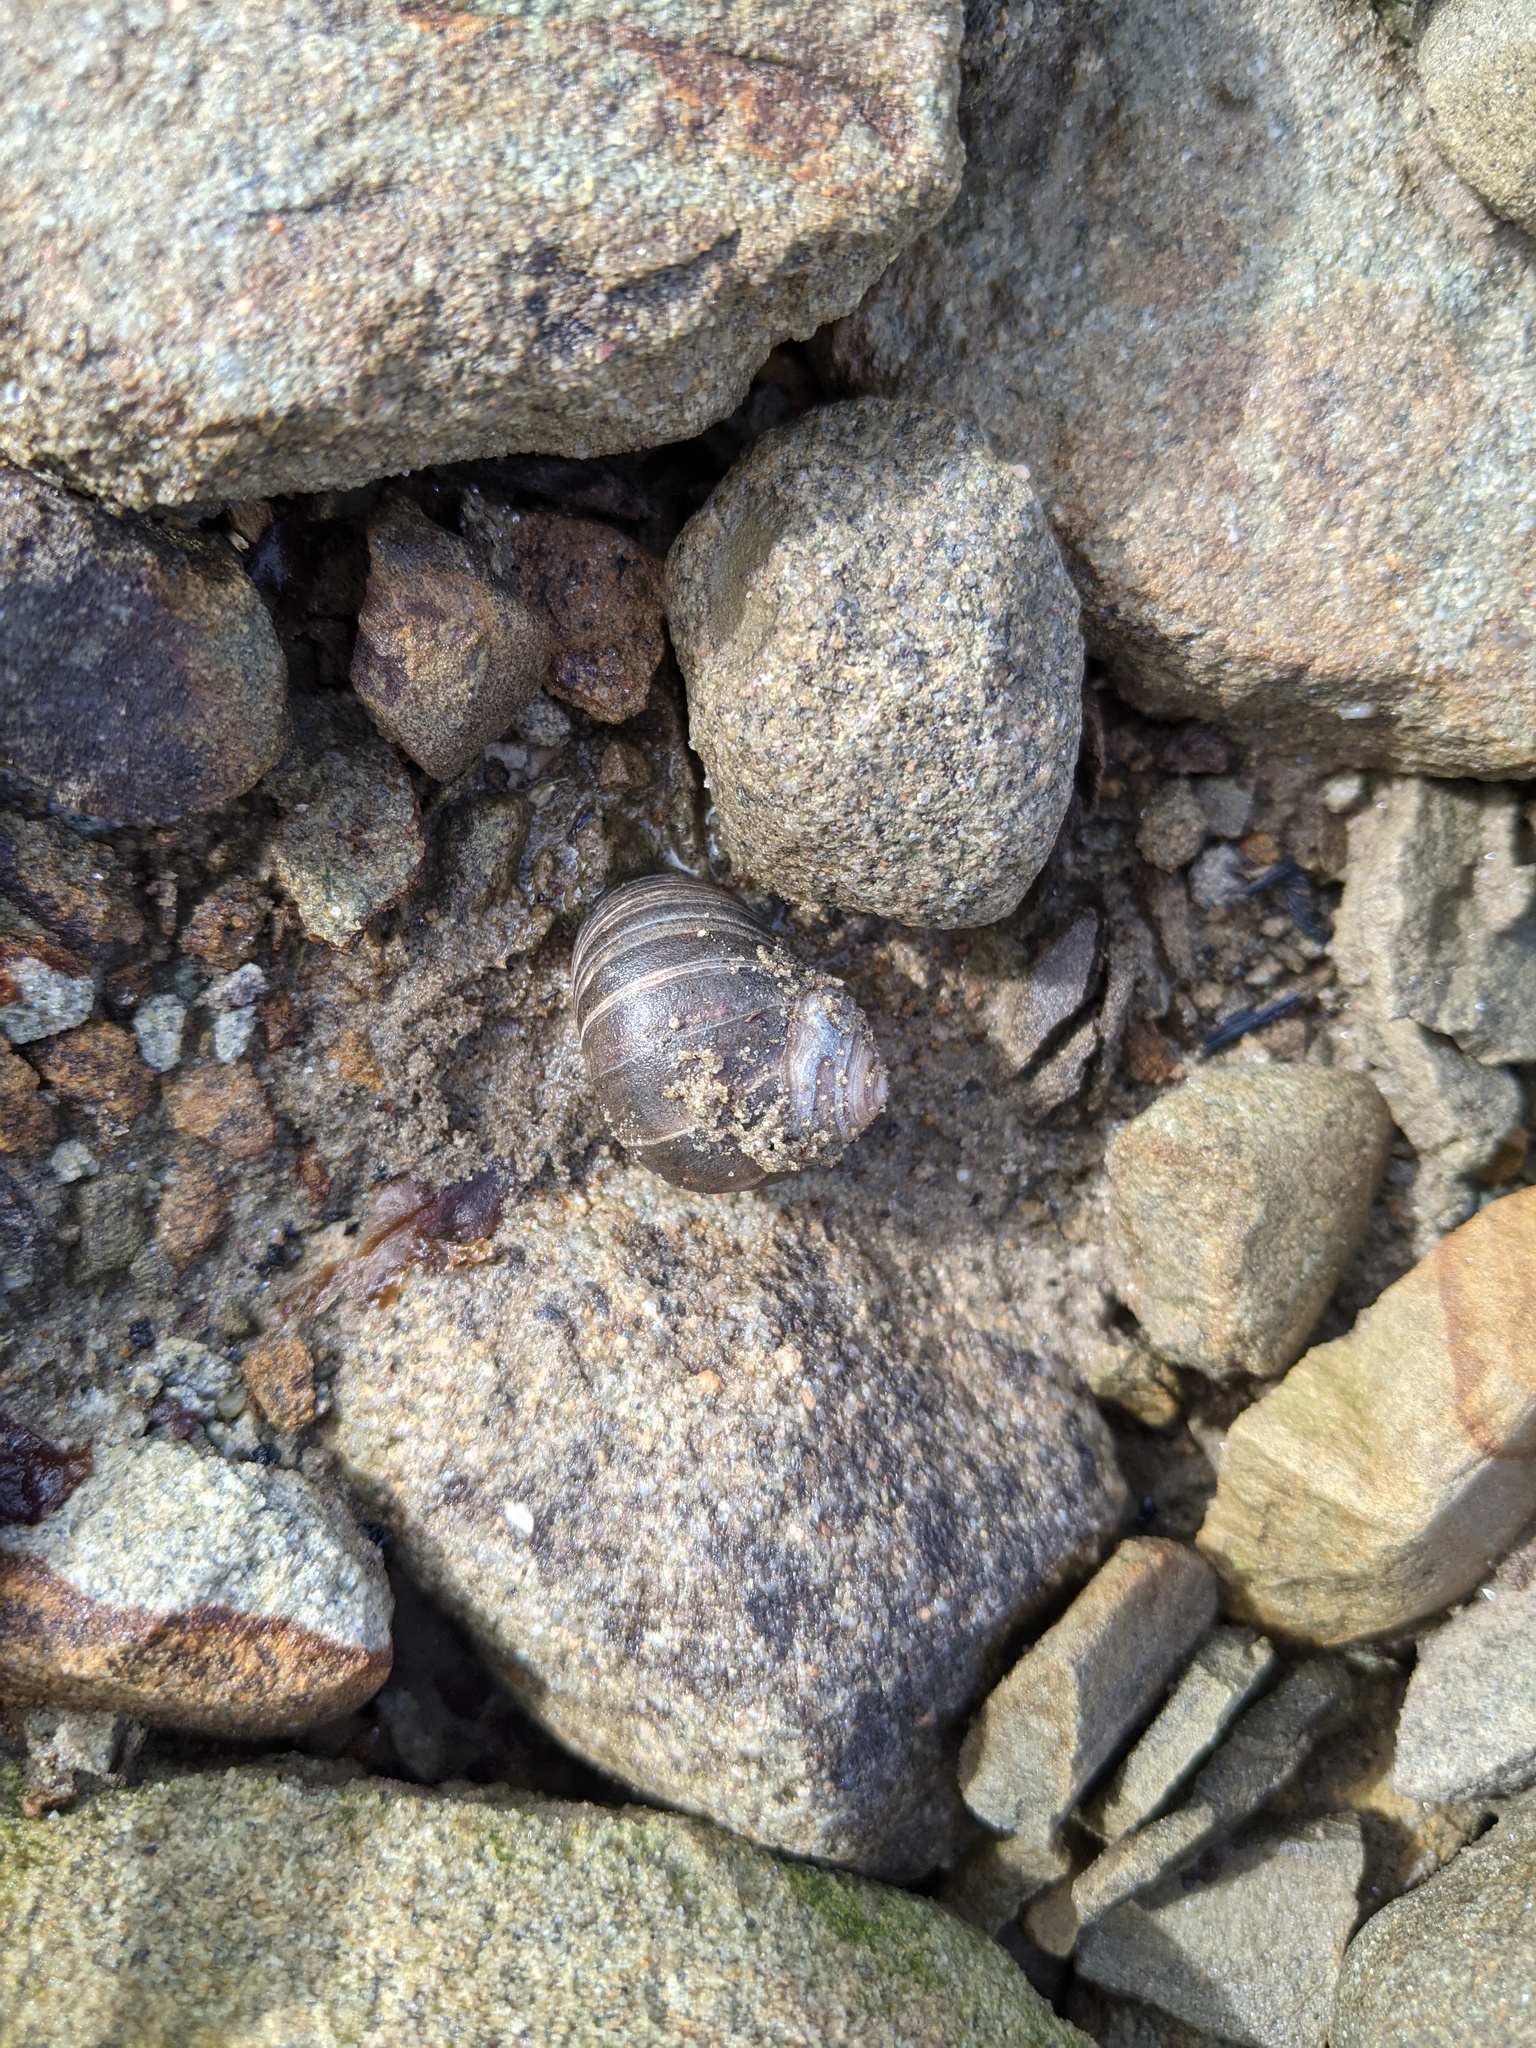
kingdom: Animalia
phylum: Mollusca
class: Gastropoda
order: Littorinimorpha
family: Littorinidae
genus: Littorina
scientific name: Littorina littorea
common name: Common periwinkle
